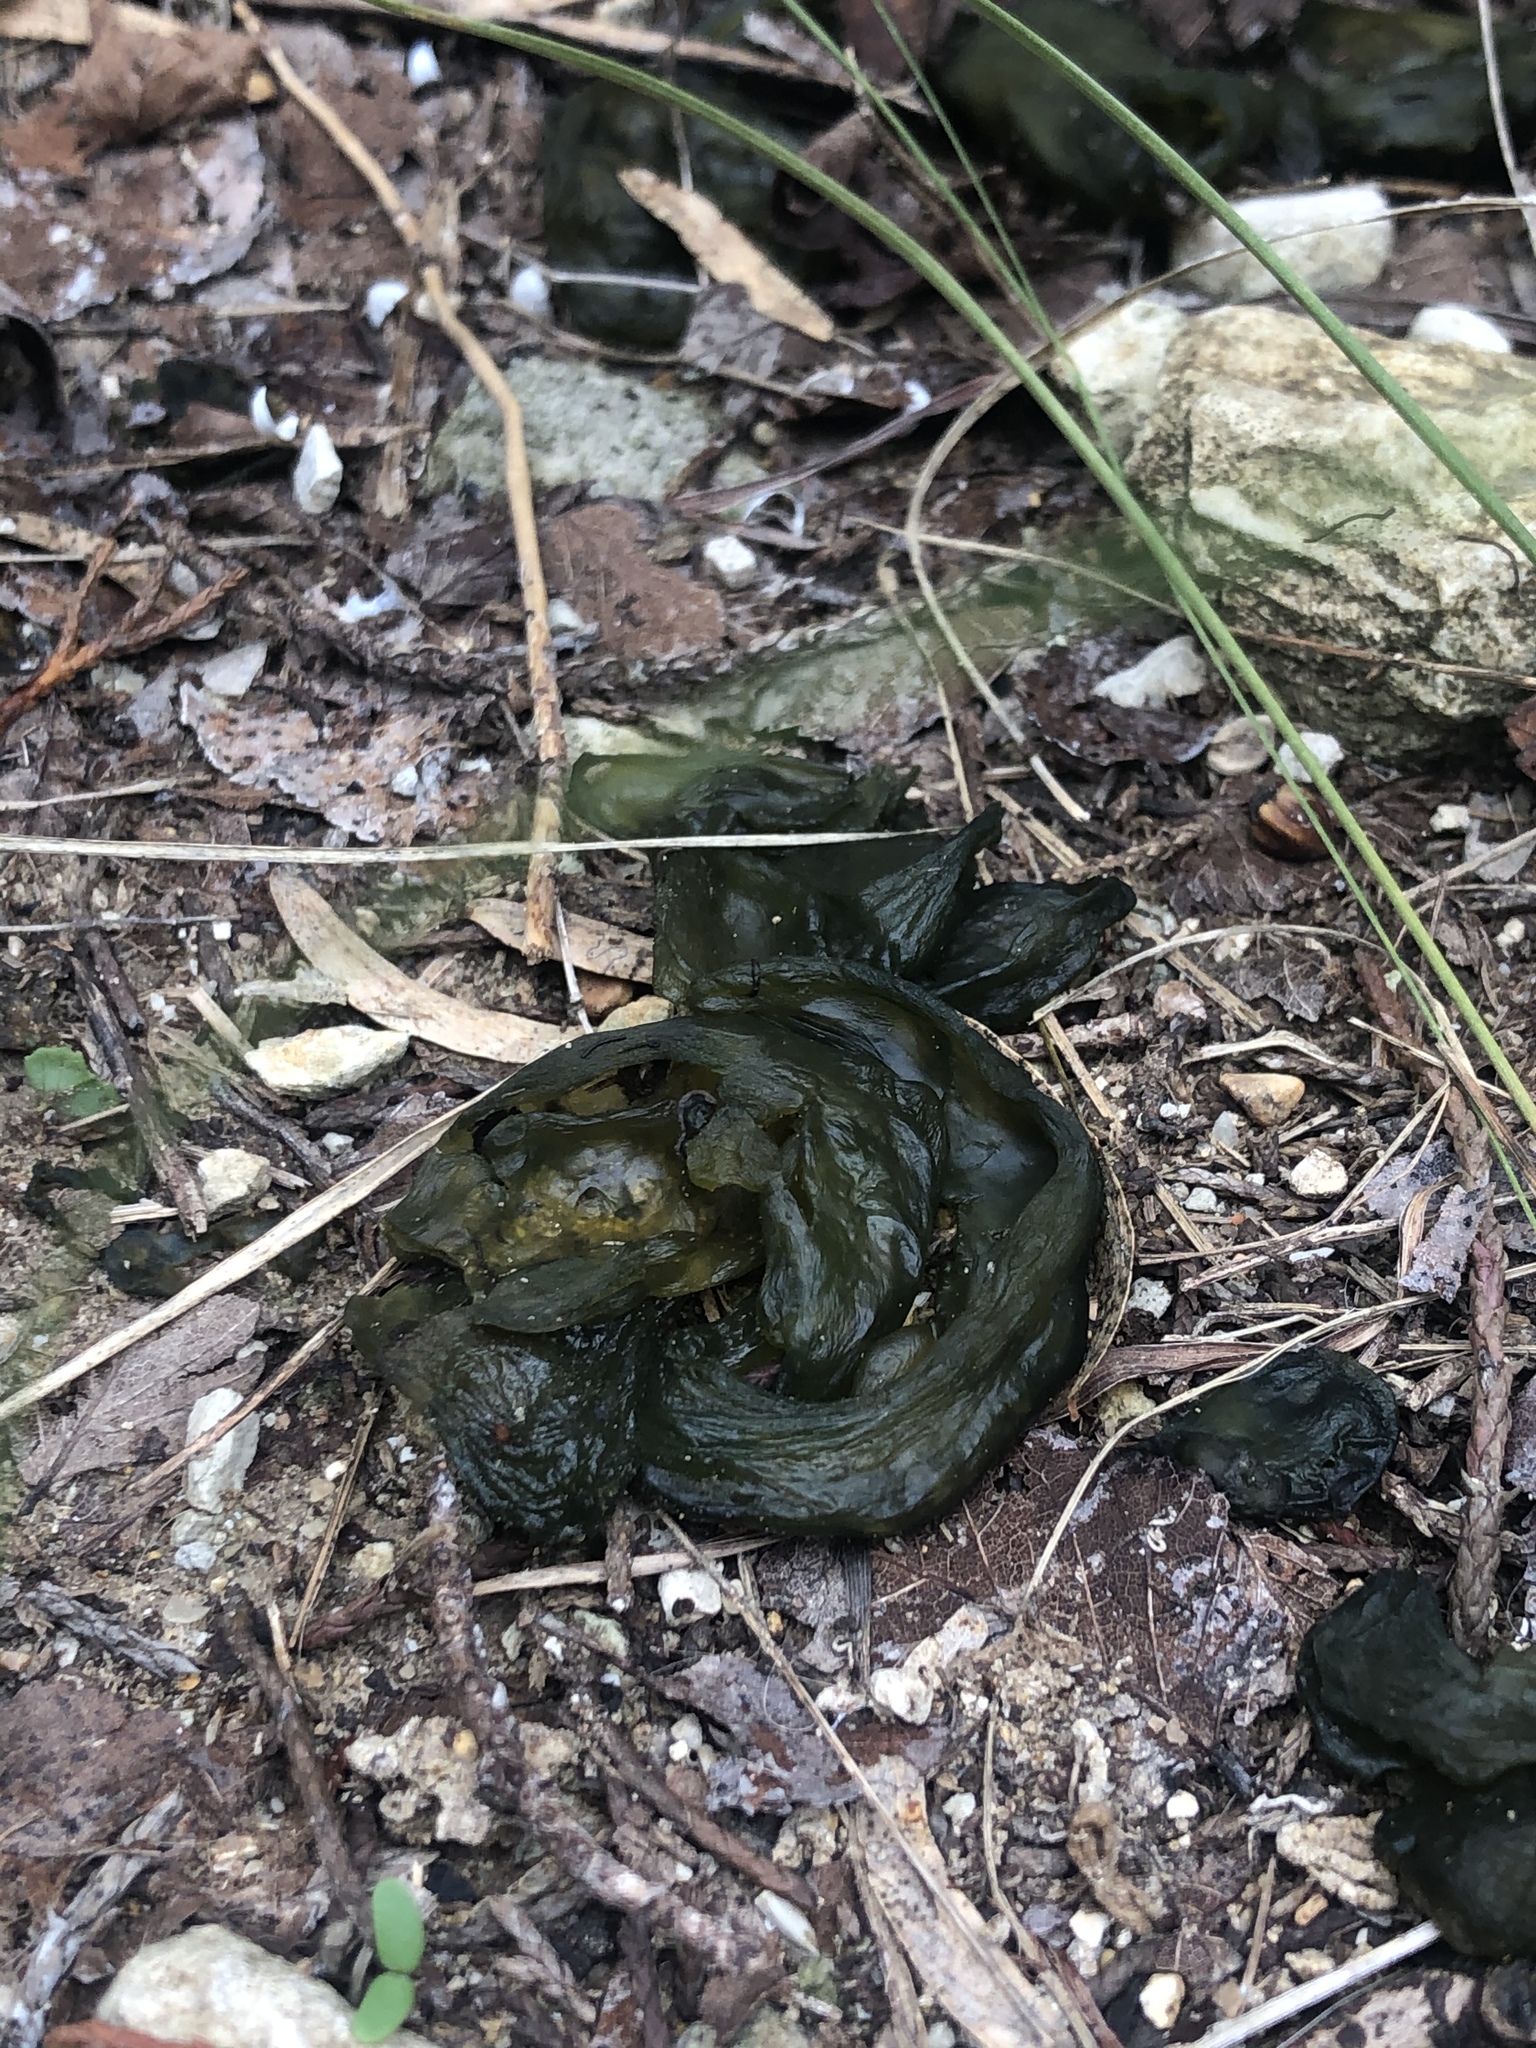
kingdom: Bacteria
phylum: Cyanobacteria
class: Cyanobacteriia
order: Cyanobacteriales
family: Nostocaceae
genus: Nostoc
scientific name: Nostoc commune
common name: Star jelly
